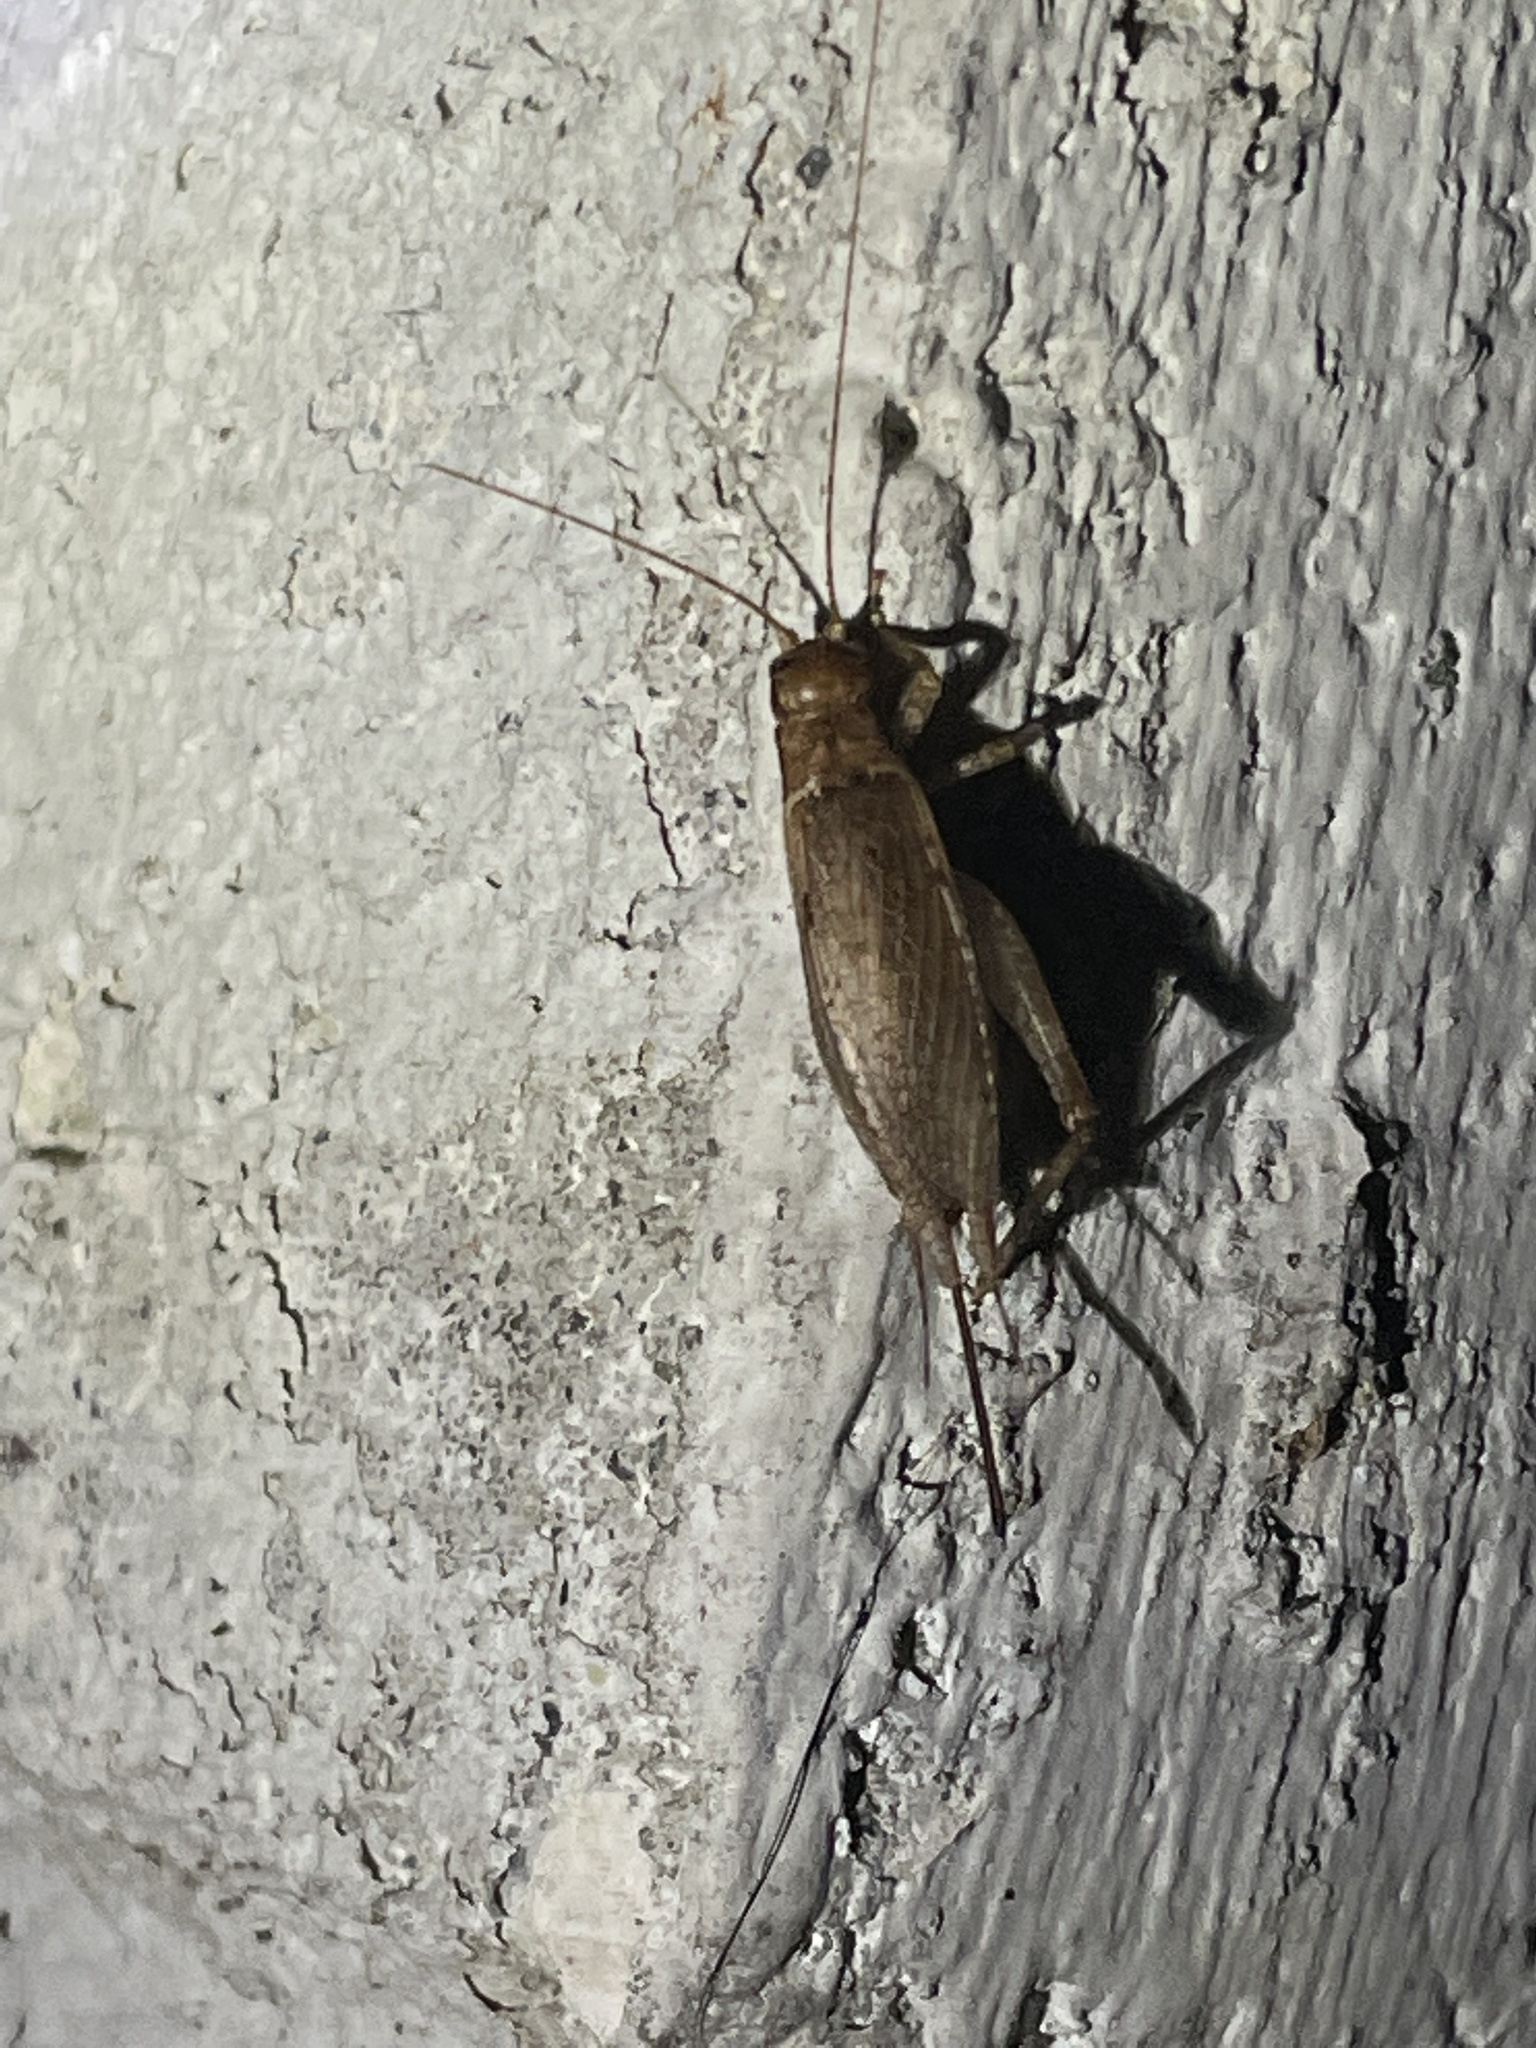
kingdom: Animalia
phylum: Arthropoda
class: Insecta
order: Orthoptera
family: Gryllidae
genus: Hapithus
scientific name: Hapithus saltator
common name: Jumping bush cricket
